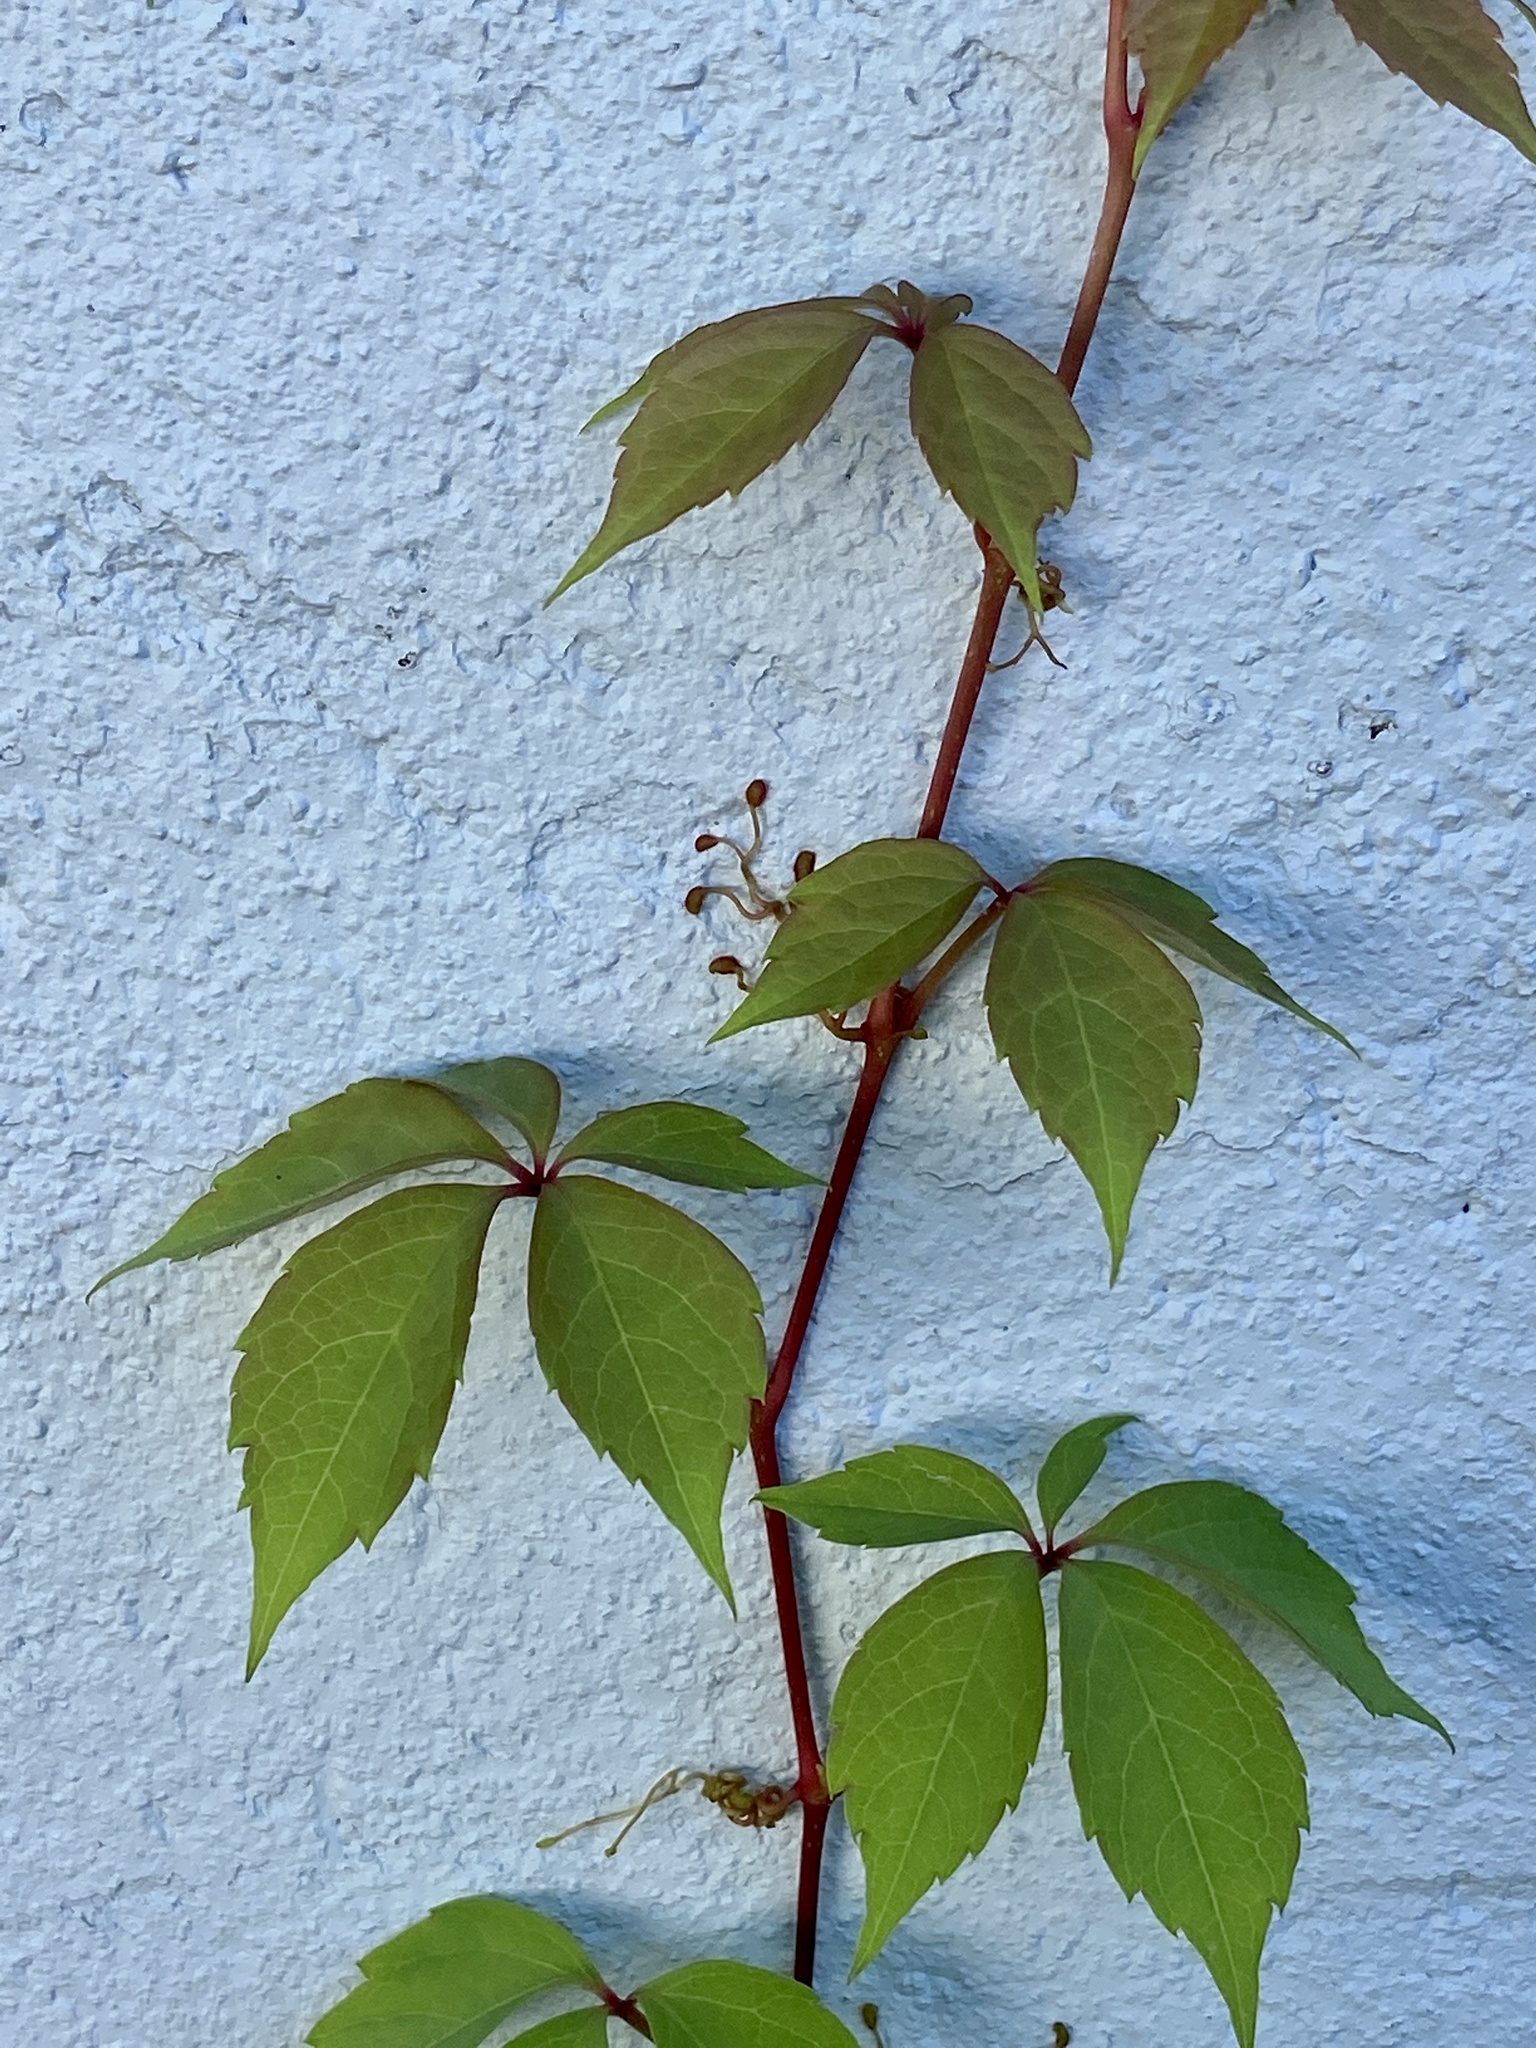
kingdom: Plantae
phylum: Tracheophyta
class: Magnoliopsida
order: Vitales
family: Vitaceae
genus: Parthenocissus
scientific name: Parthenocissus quinquefolia
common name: Virginia-creeper
